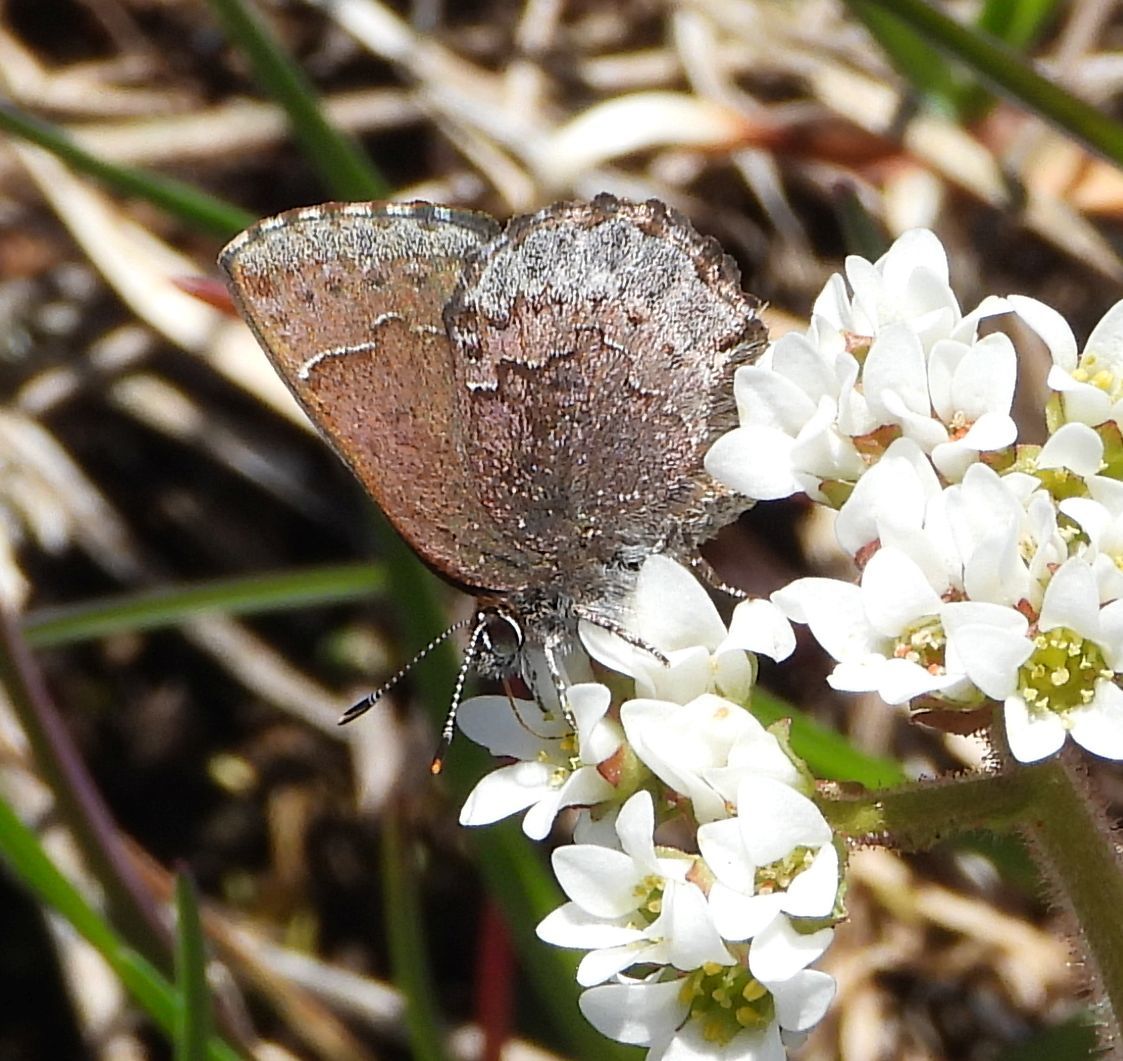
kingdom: Animalia
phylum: Arthropoda
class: Insecta
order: Lepidoptera
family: Lycaenidae
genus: Callophrys
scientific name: Callophrys polios
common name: Hoary elfin
